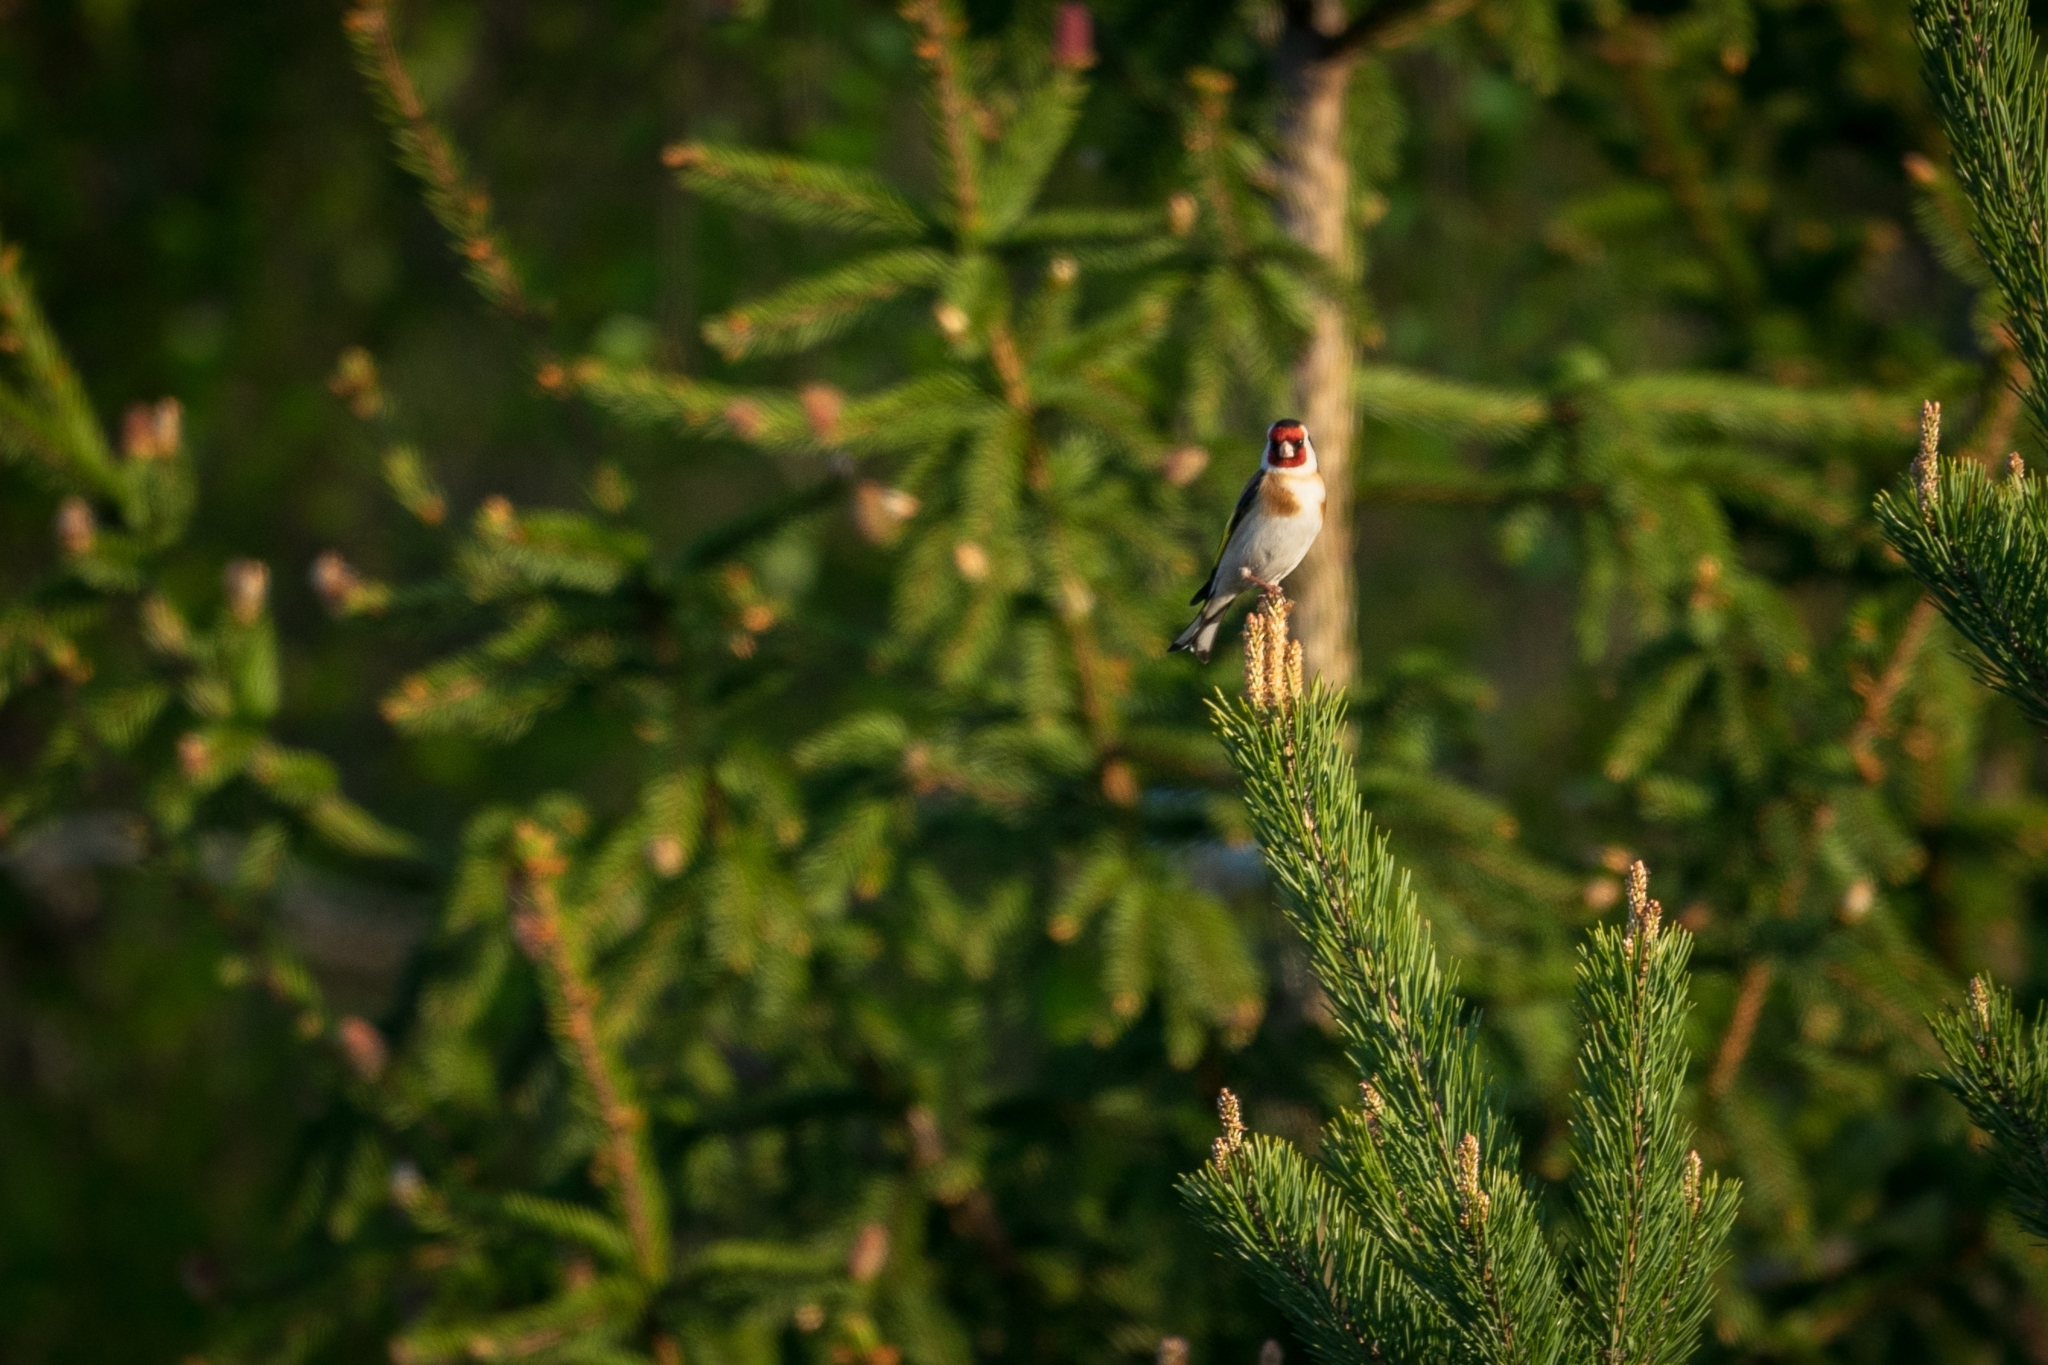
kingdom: Animalia
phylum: Chordata
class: Aves
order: Passeriformes
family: Fringillidae
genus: Carduelis
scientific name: Carduelis carduelis
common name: European goldfinch
